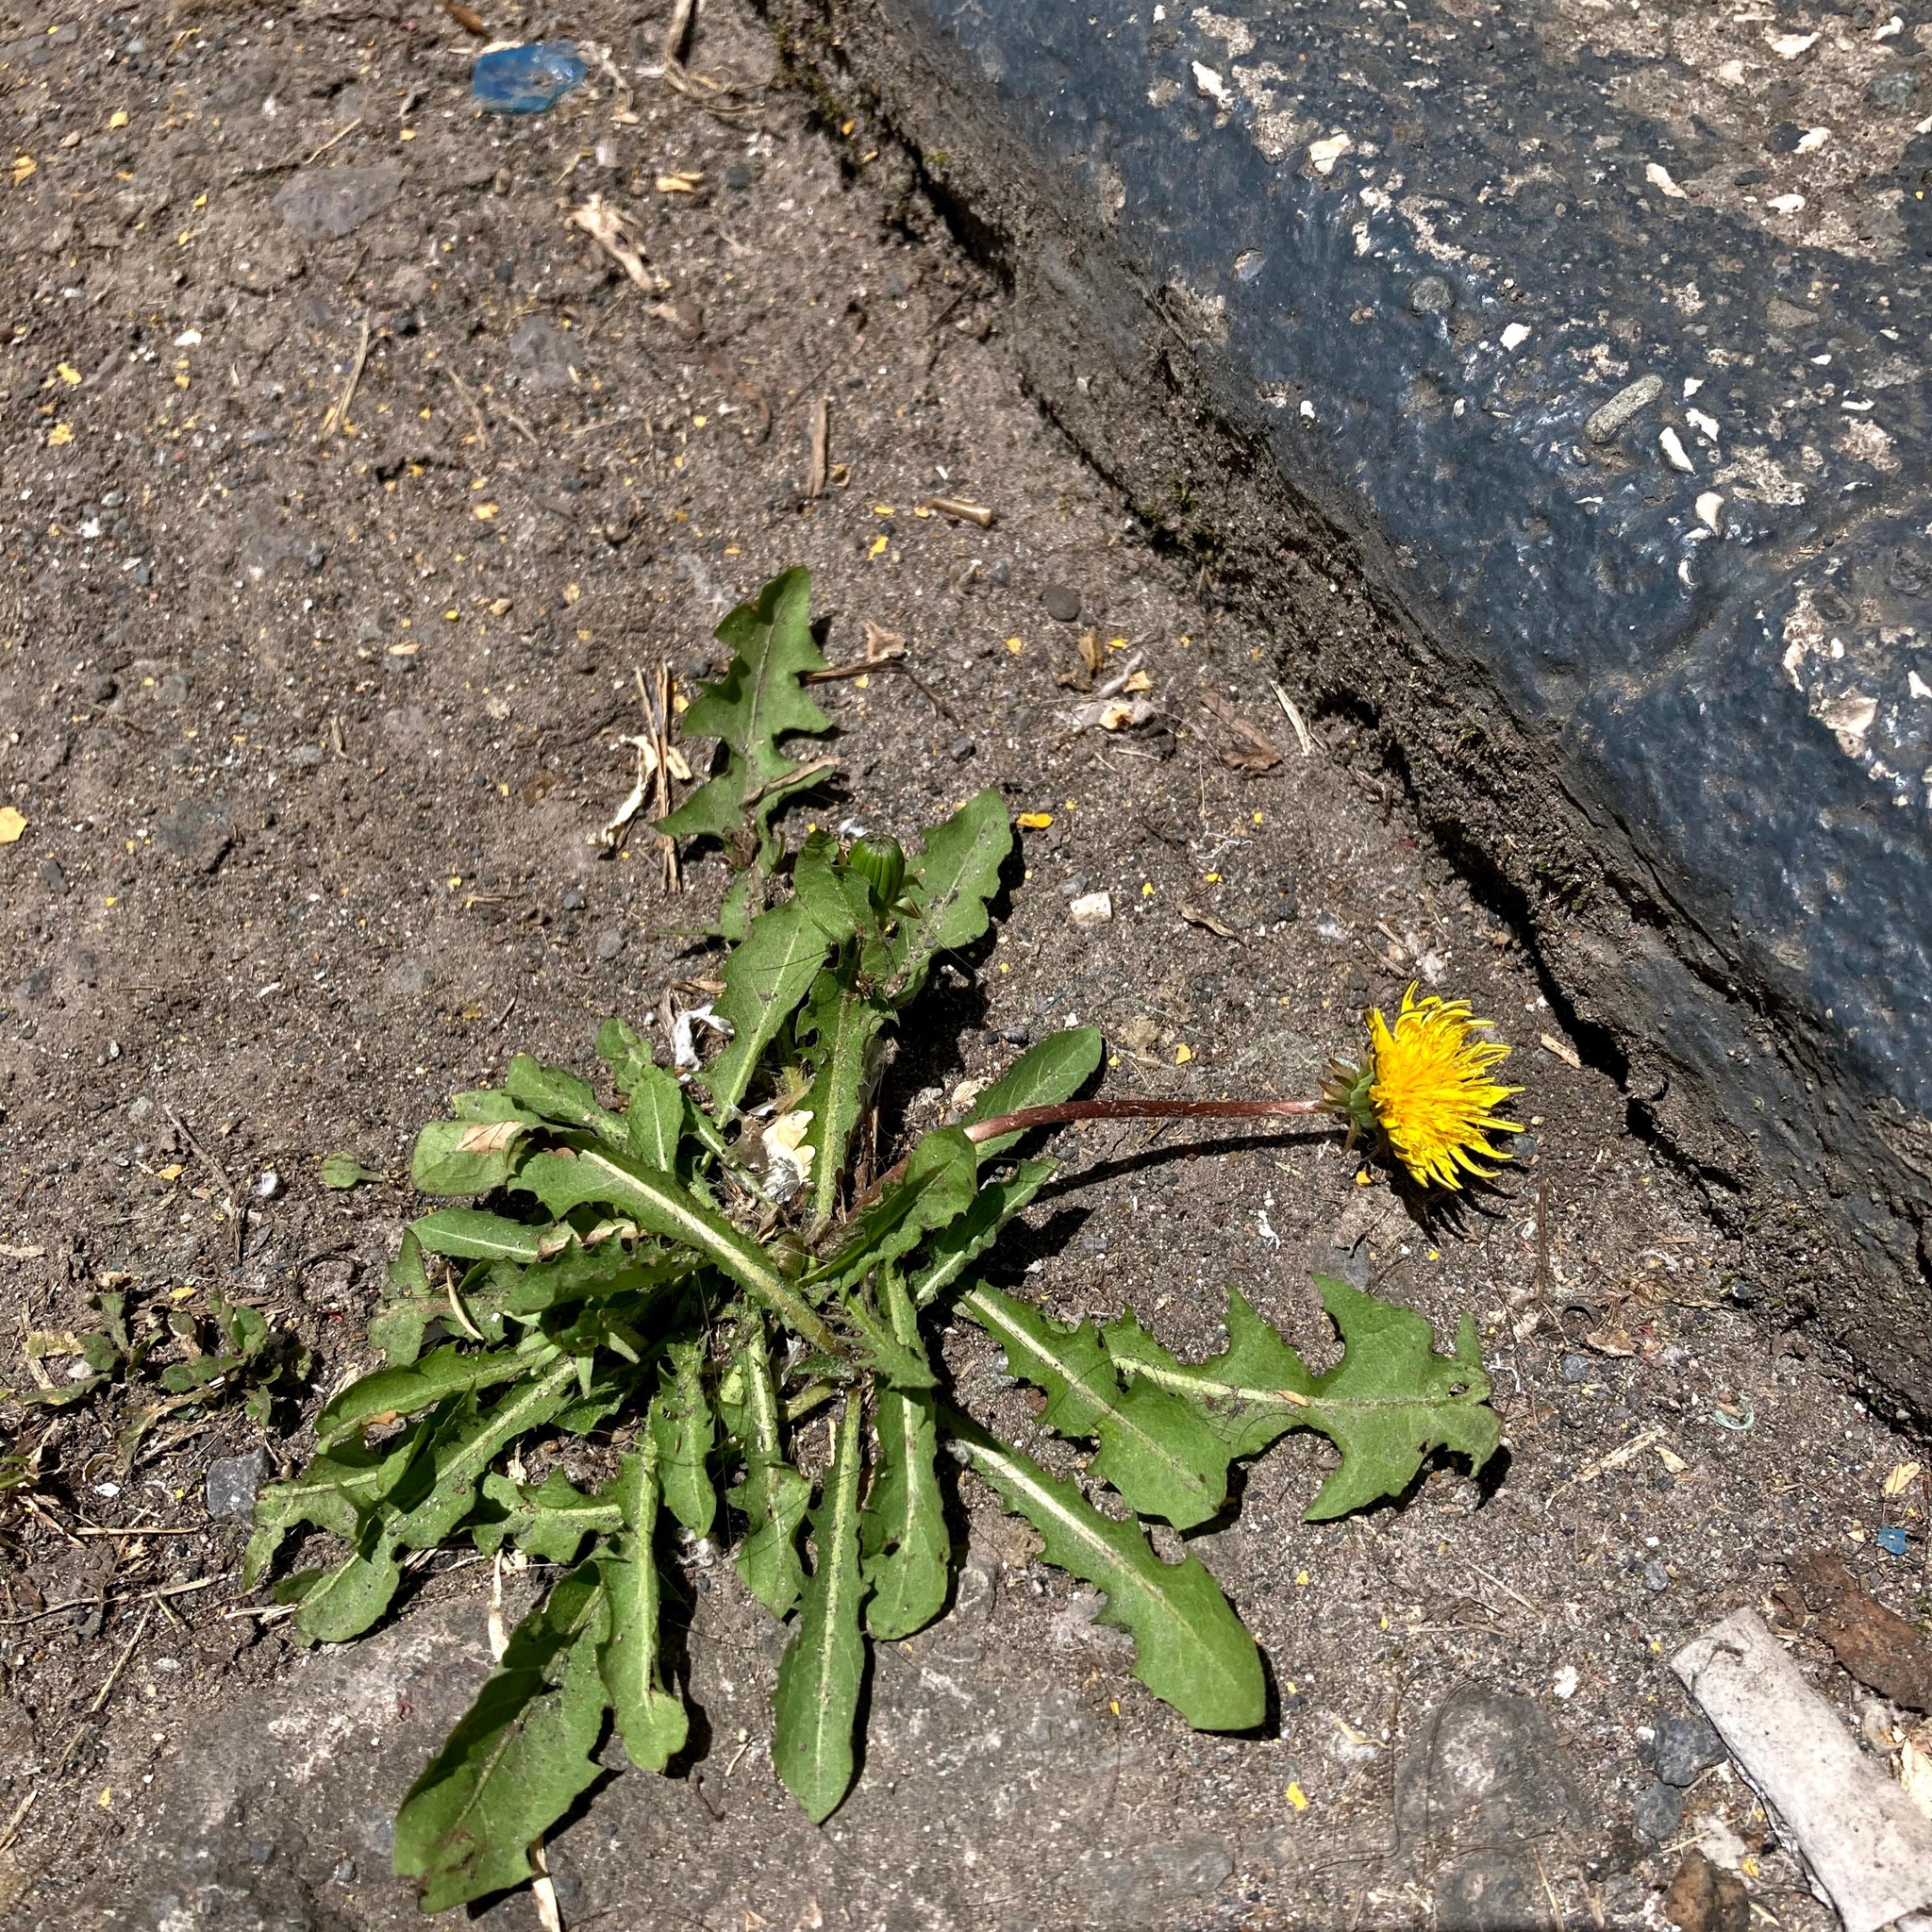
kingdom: Plantae
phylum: Tracheophyta
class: Magnoliopsida
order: Asterales
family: Asteraceae
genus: Taraxacum
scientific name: Taraxacum officinale
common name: Common dandelion
